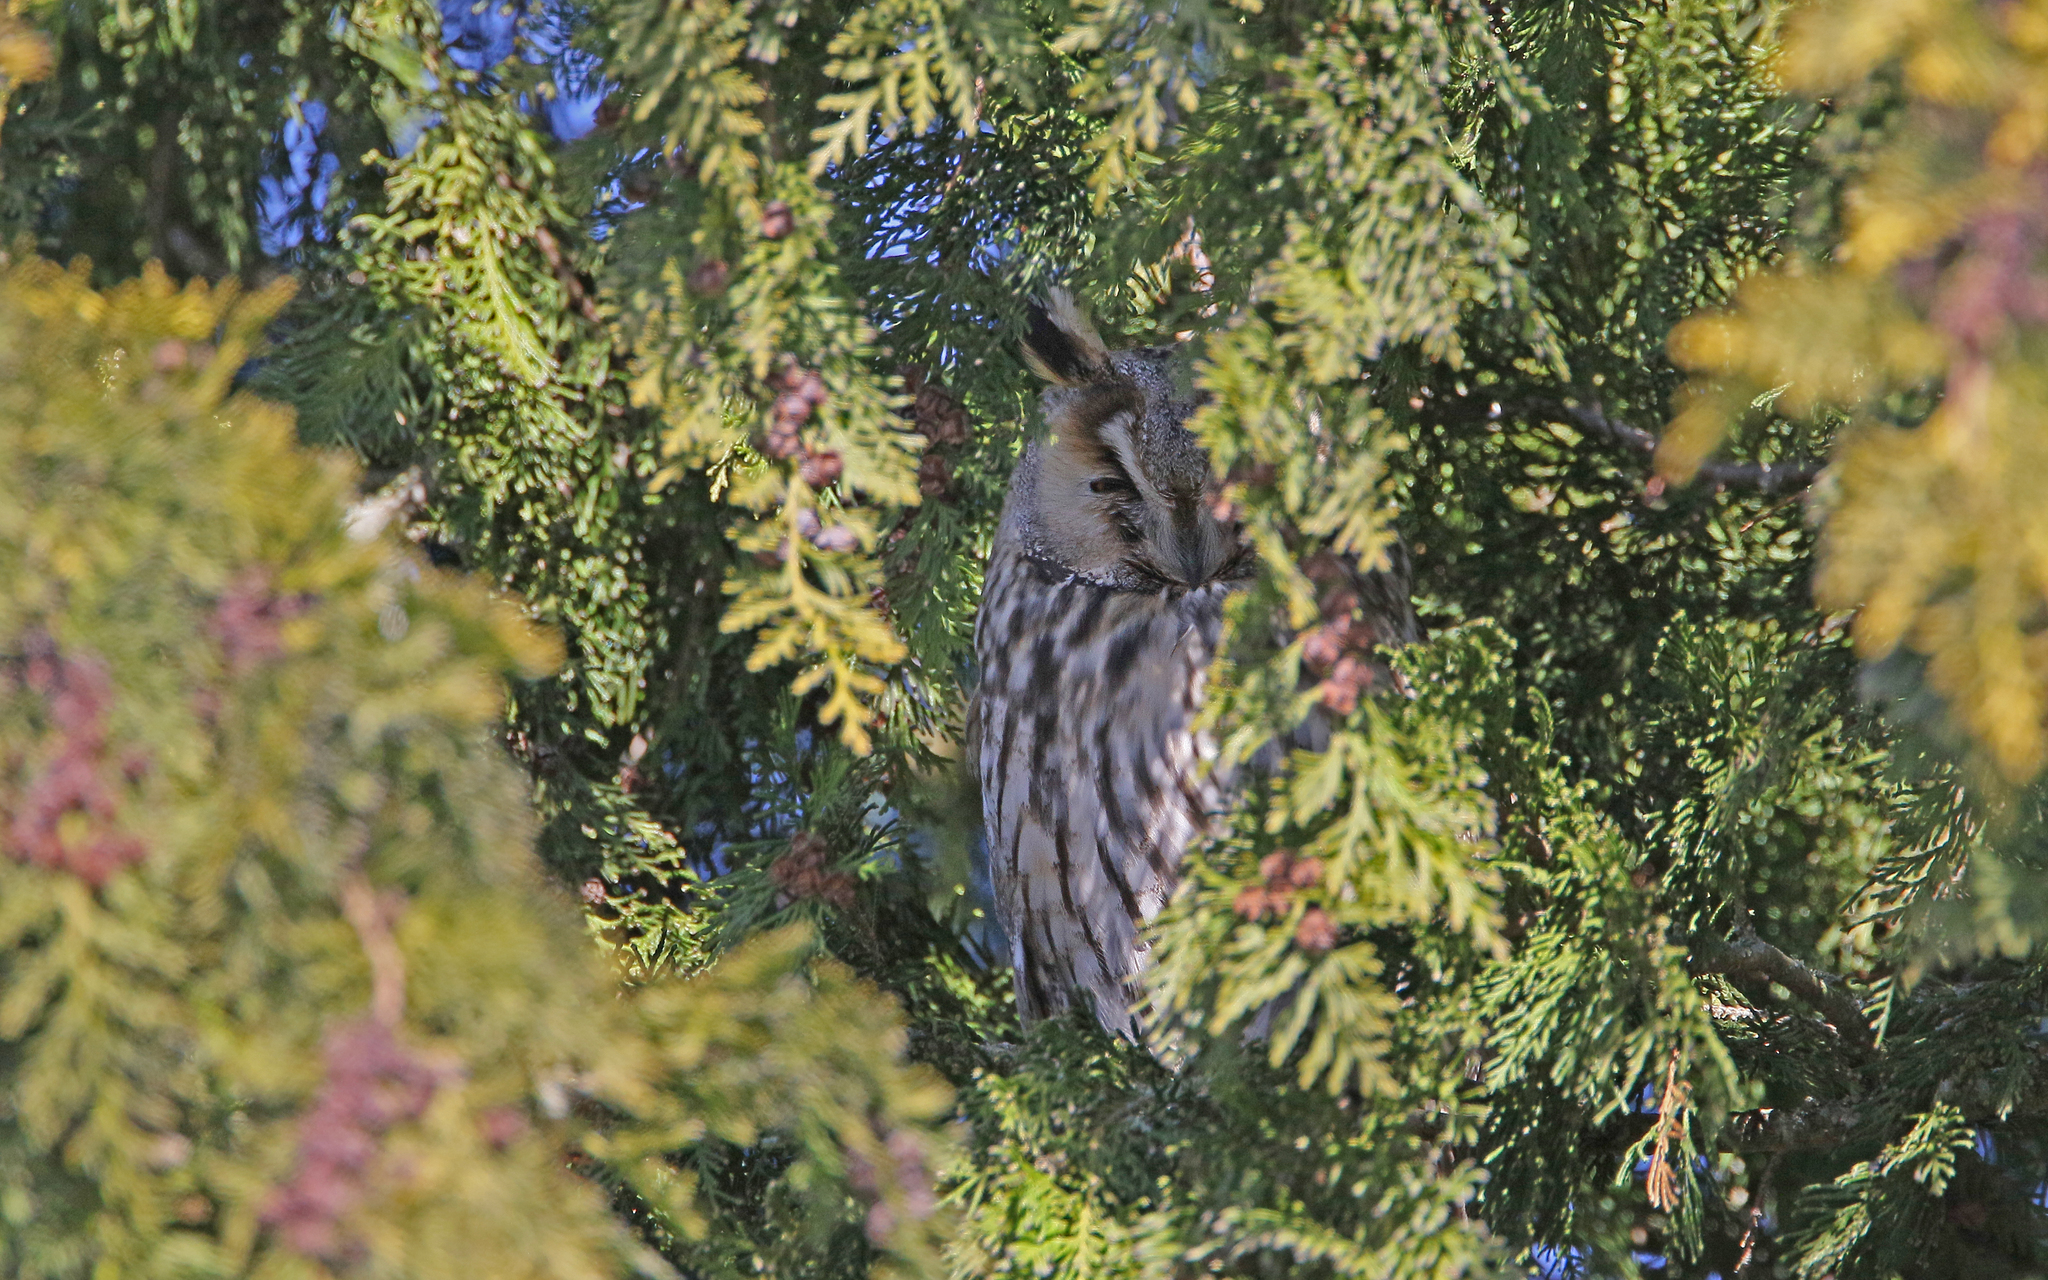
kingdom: Animalia
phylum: Chordata
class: Aves
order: Strigiformes
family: Strigidae
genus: Asio
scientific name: Asio otus
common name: Long-eared owl
